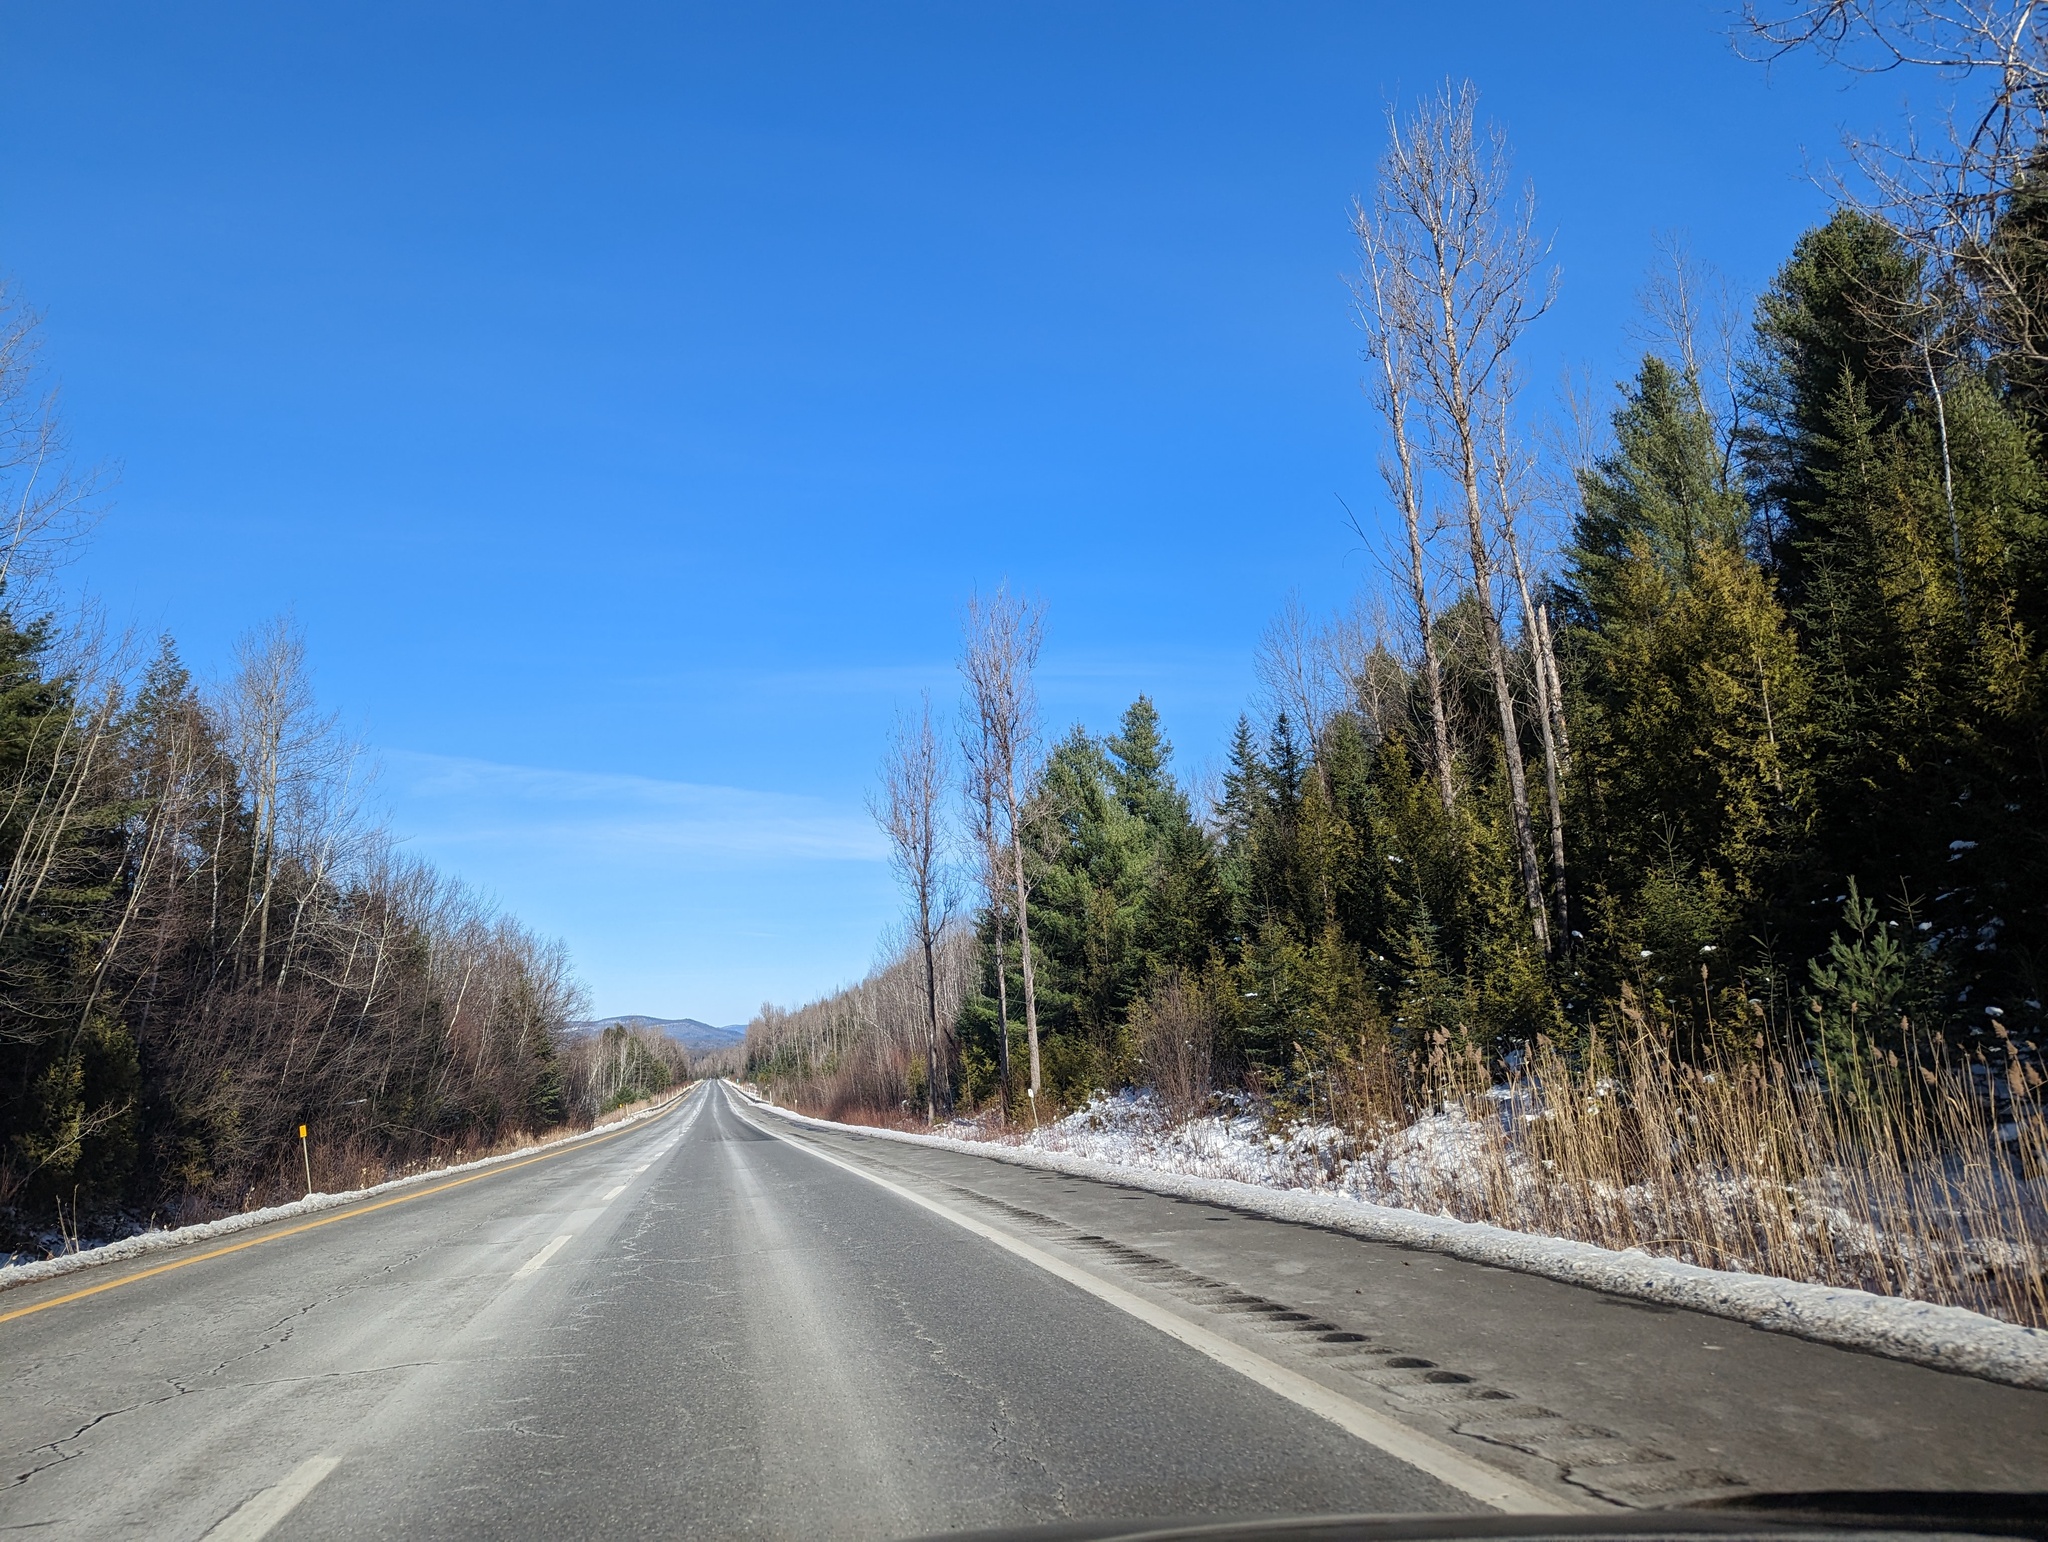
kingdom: Plantae
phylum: Tracheophyta
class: Pinopsida
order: Pinales
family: Pinaceae
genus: Pinus
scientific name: Pinus strobus
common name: Weymouth pine
